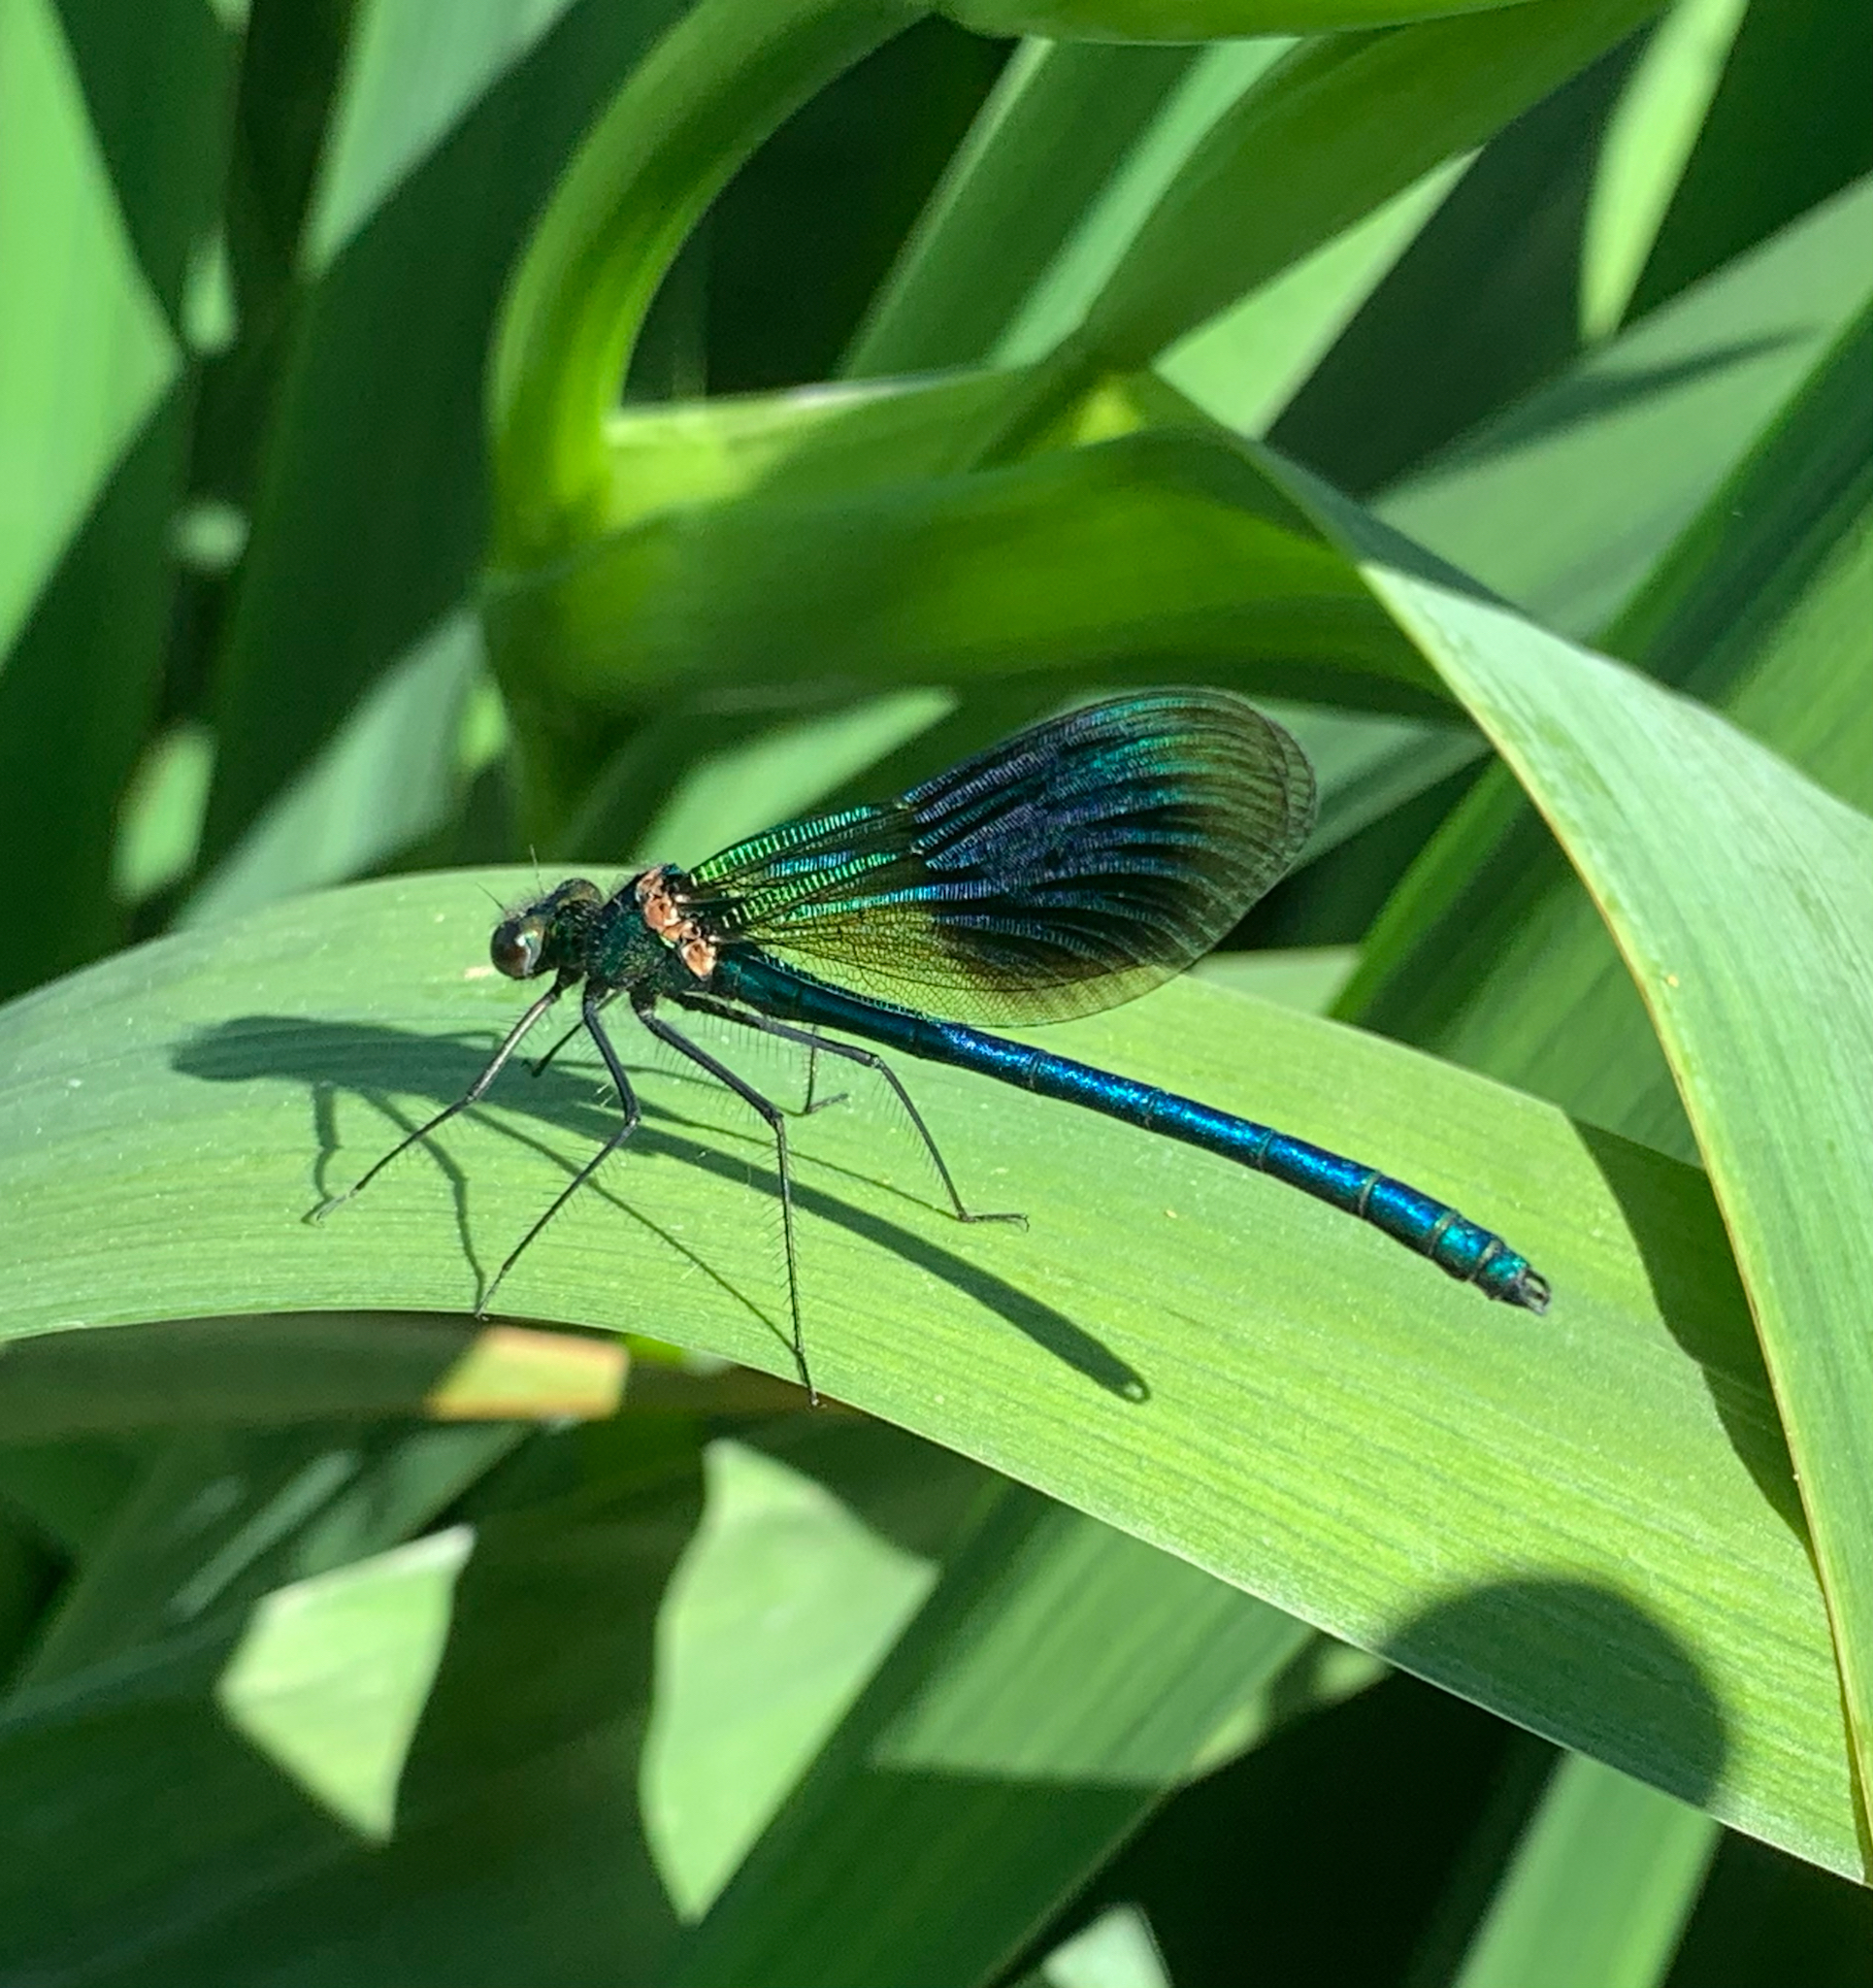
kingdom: Animalia
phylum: Arthropoda
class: Insecta
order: Odonata
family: Calopterygidae
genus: Calopteryx
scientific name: Calopteryx splendens
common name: Banded demoiselle
